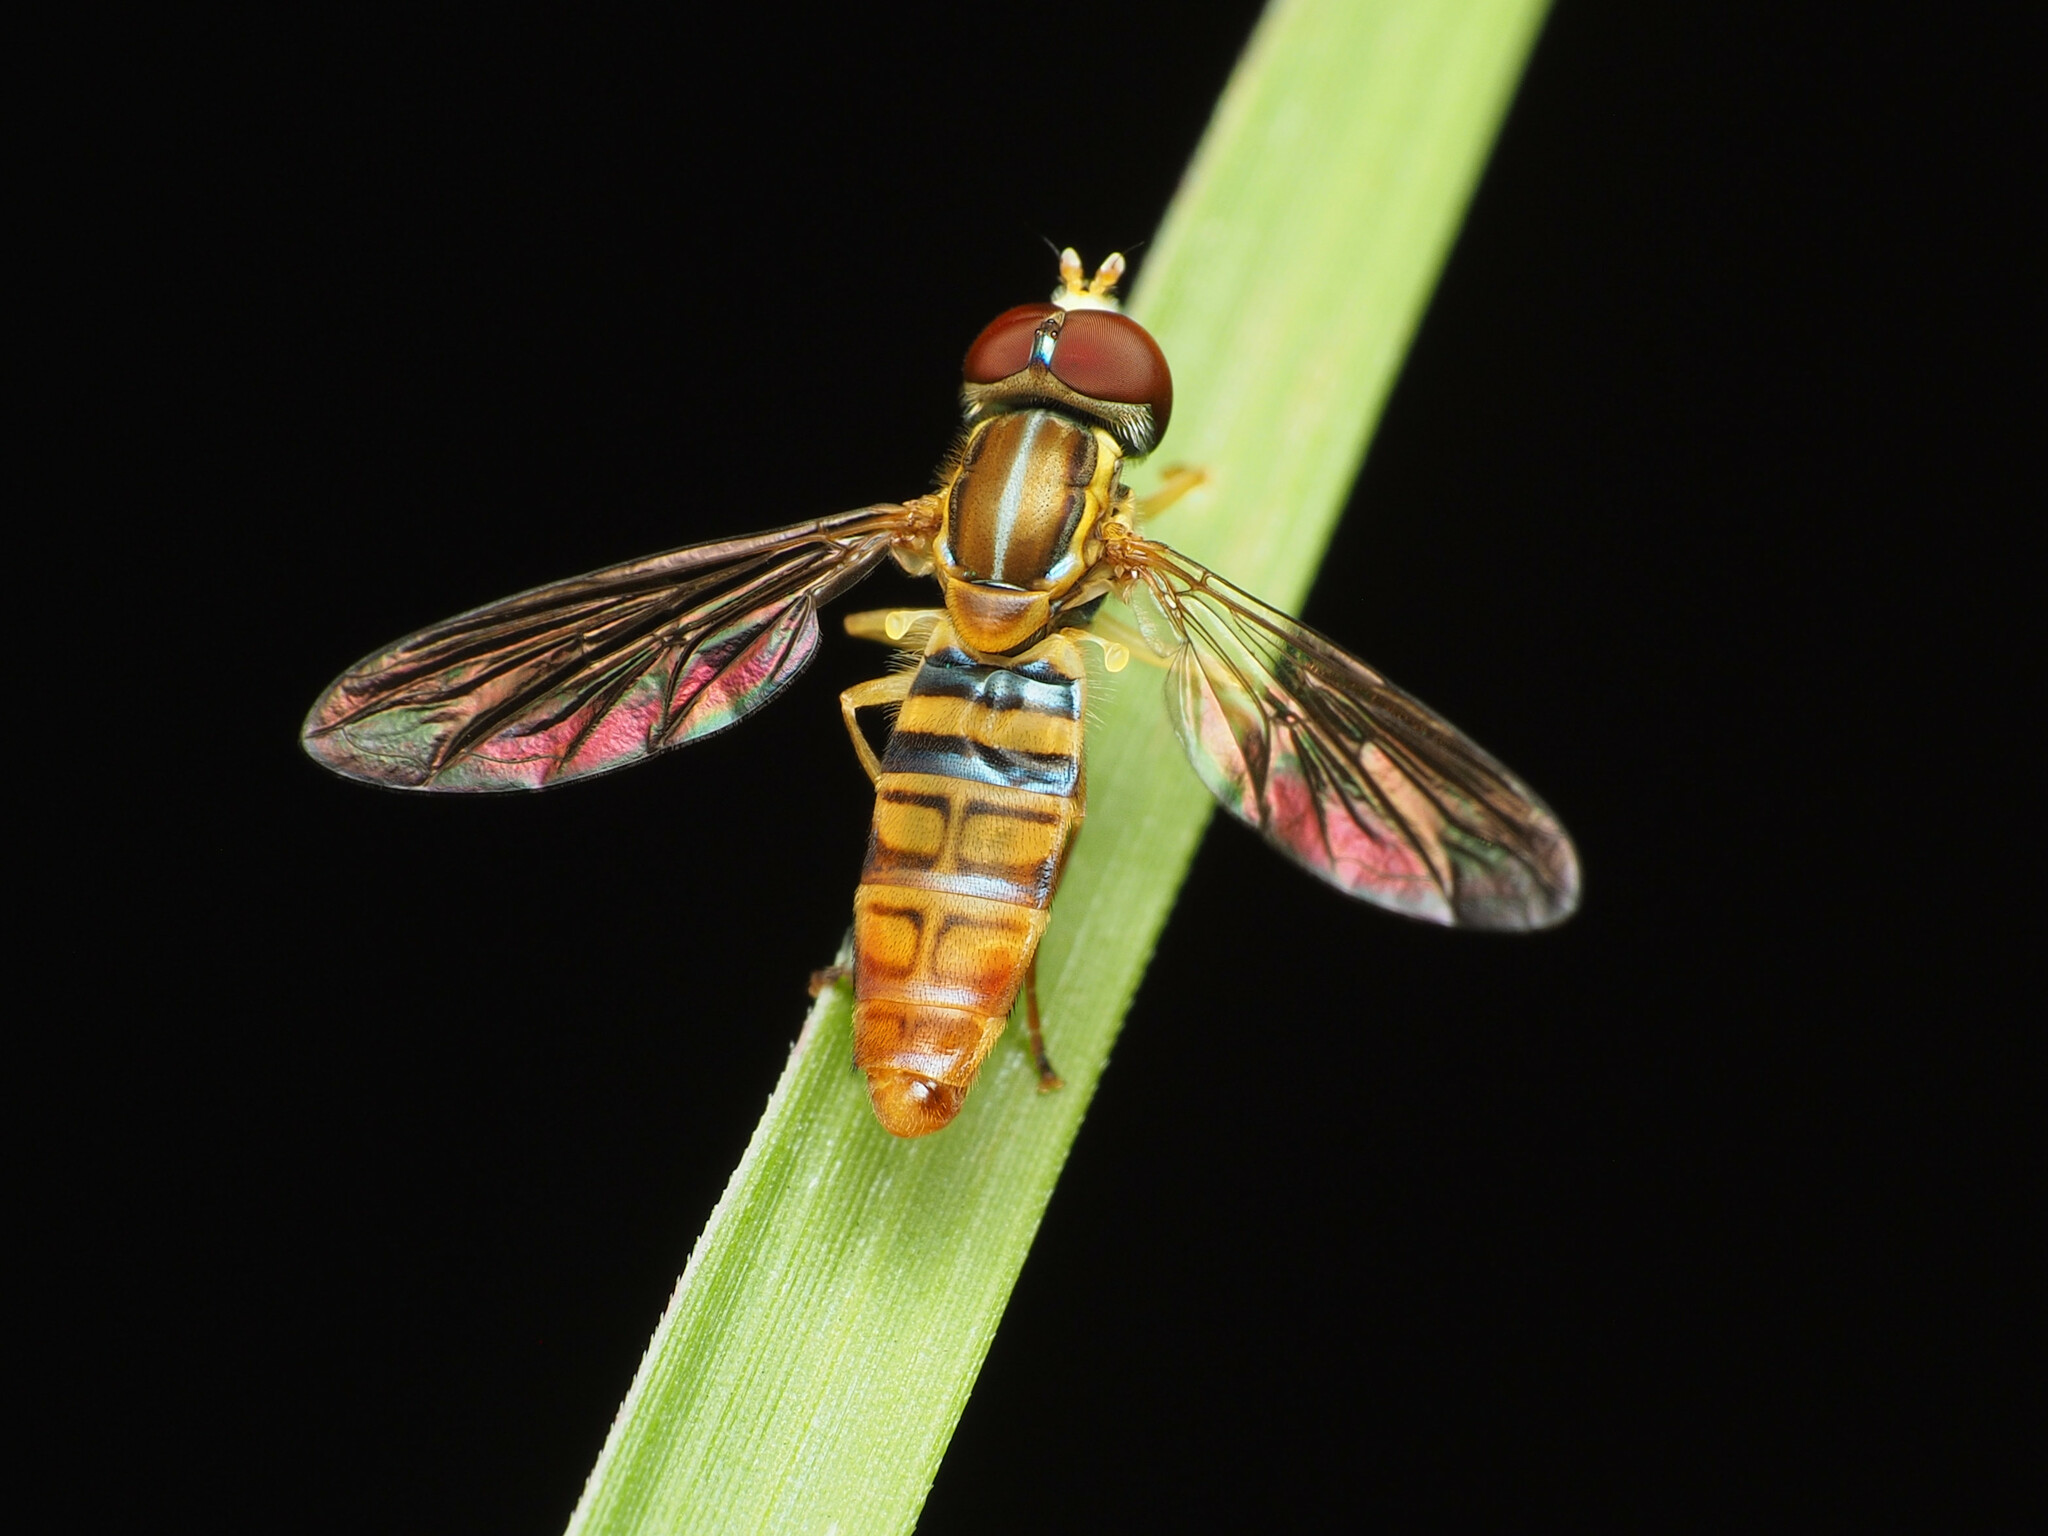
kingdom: Animalia
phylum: Arthropoda
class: Insecta
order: Diptera
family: Syrphidae
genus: Toxomerus
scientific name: Toxomerus politus
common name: Maize calligrapher
